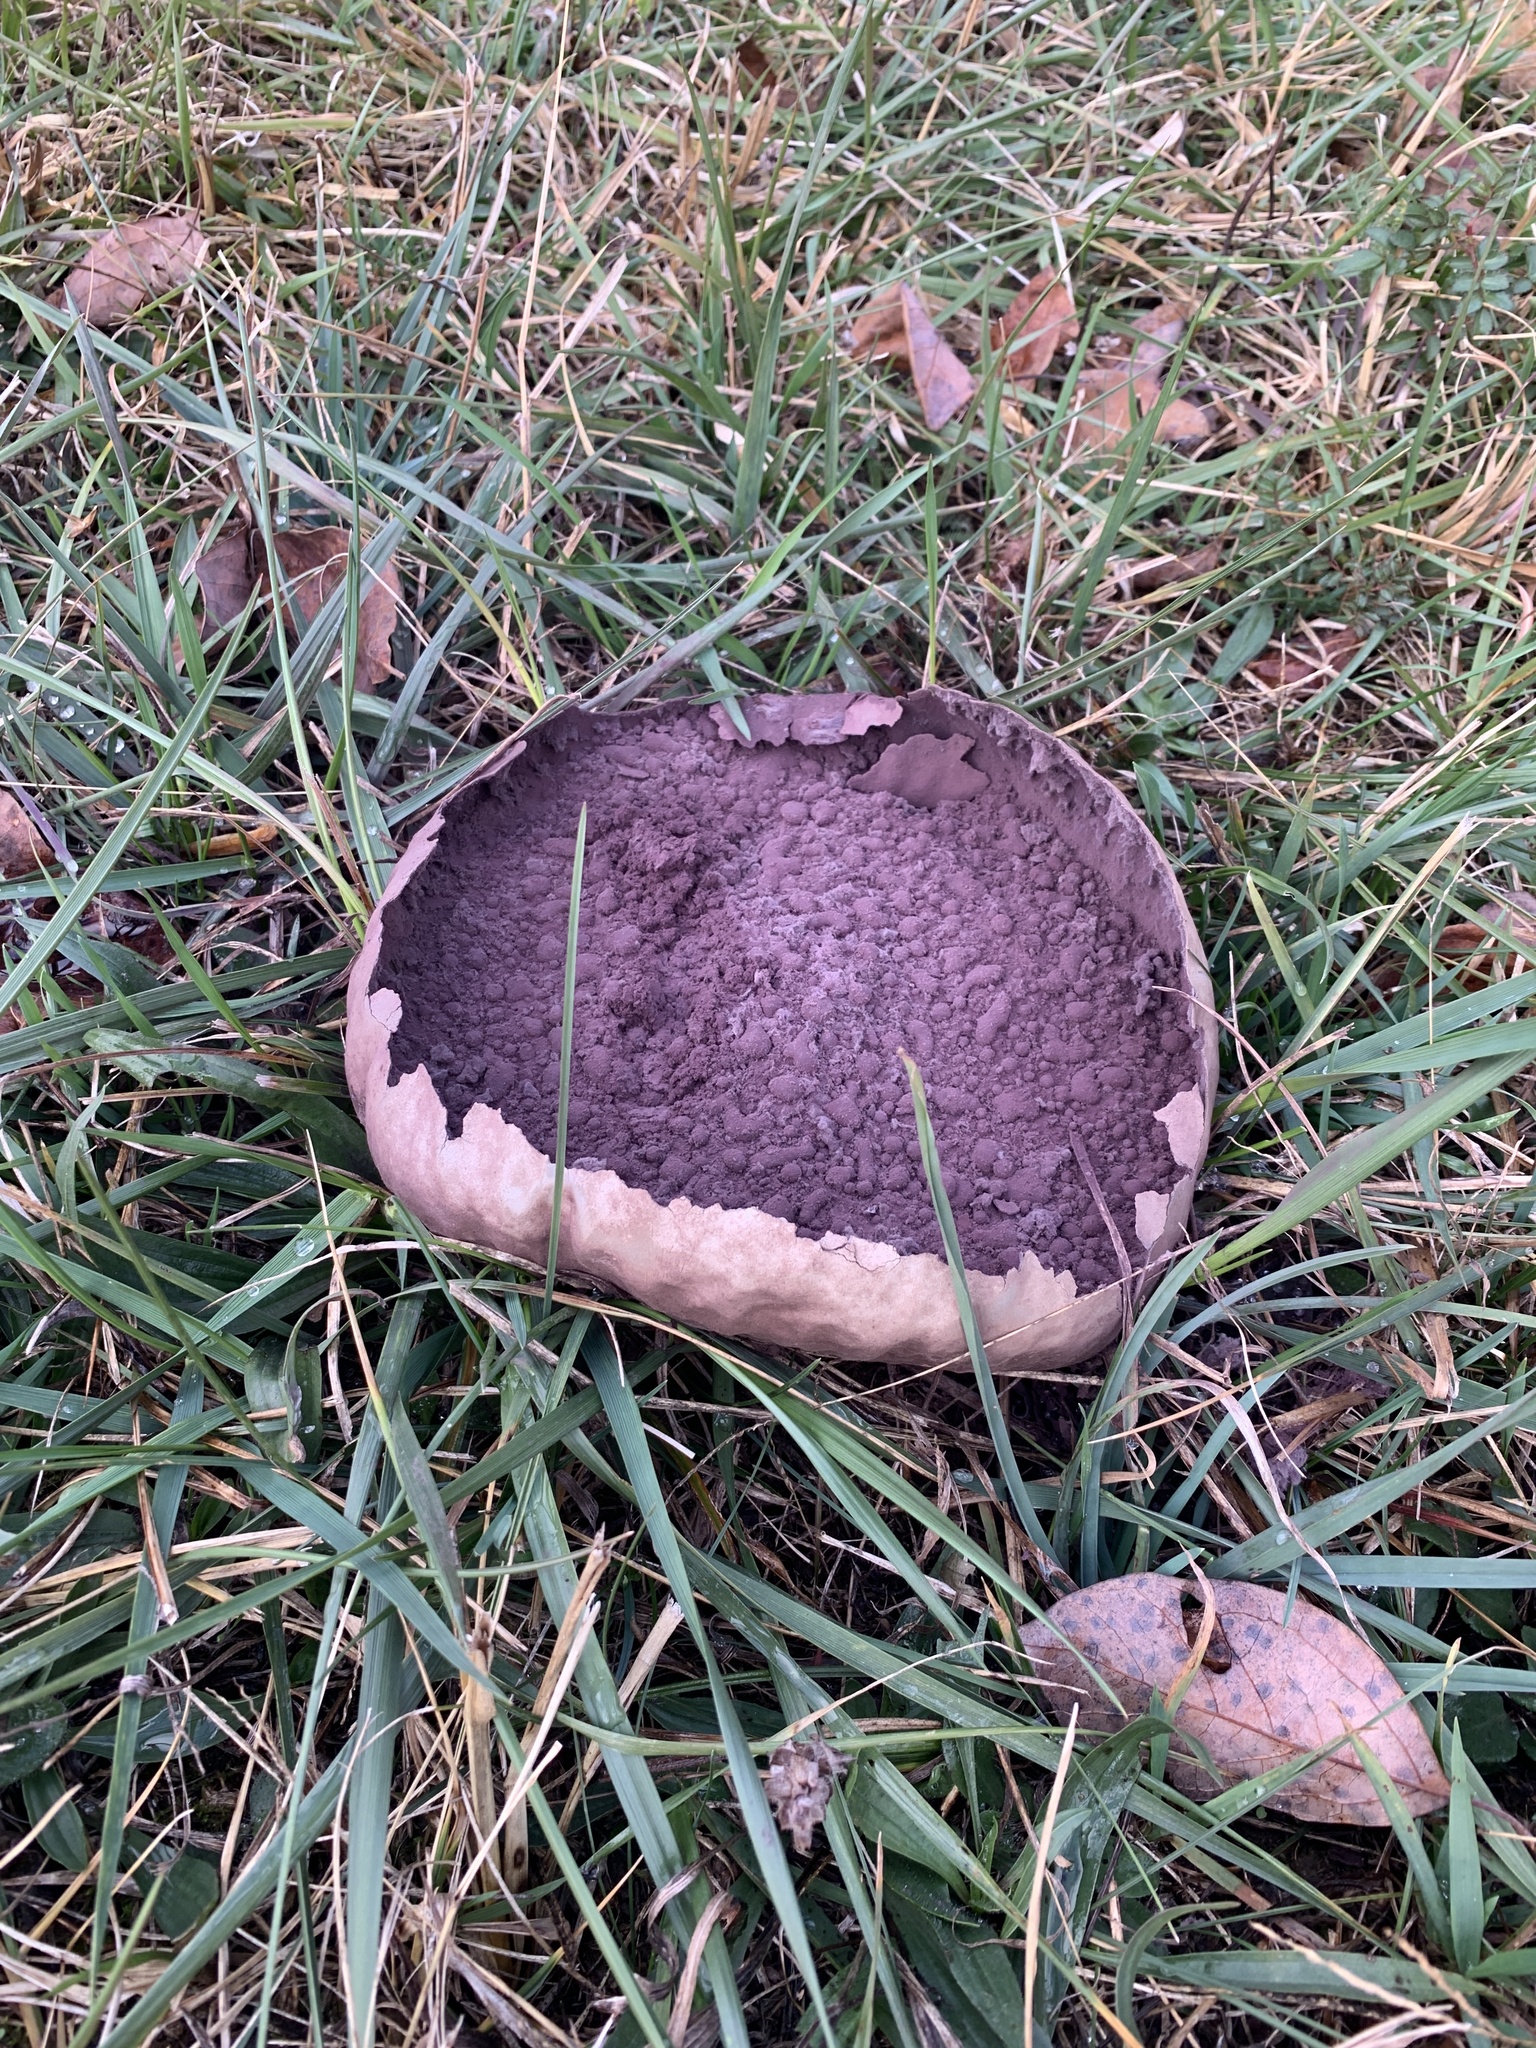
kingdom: Fungi
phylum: Basidiomycota
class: Agaricomycetes
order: Agaricales
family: Lycoperdaceae
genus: Calvatia
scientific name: Calvatia cyathiformis
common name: Purple-spored puffball
